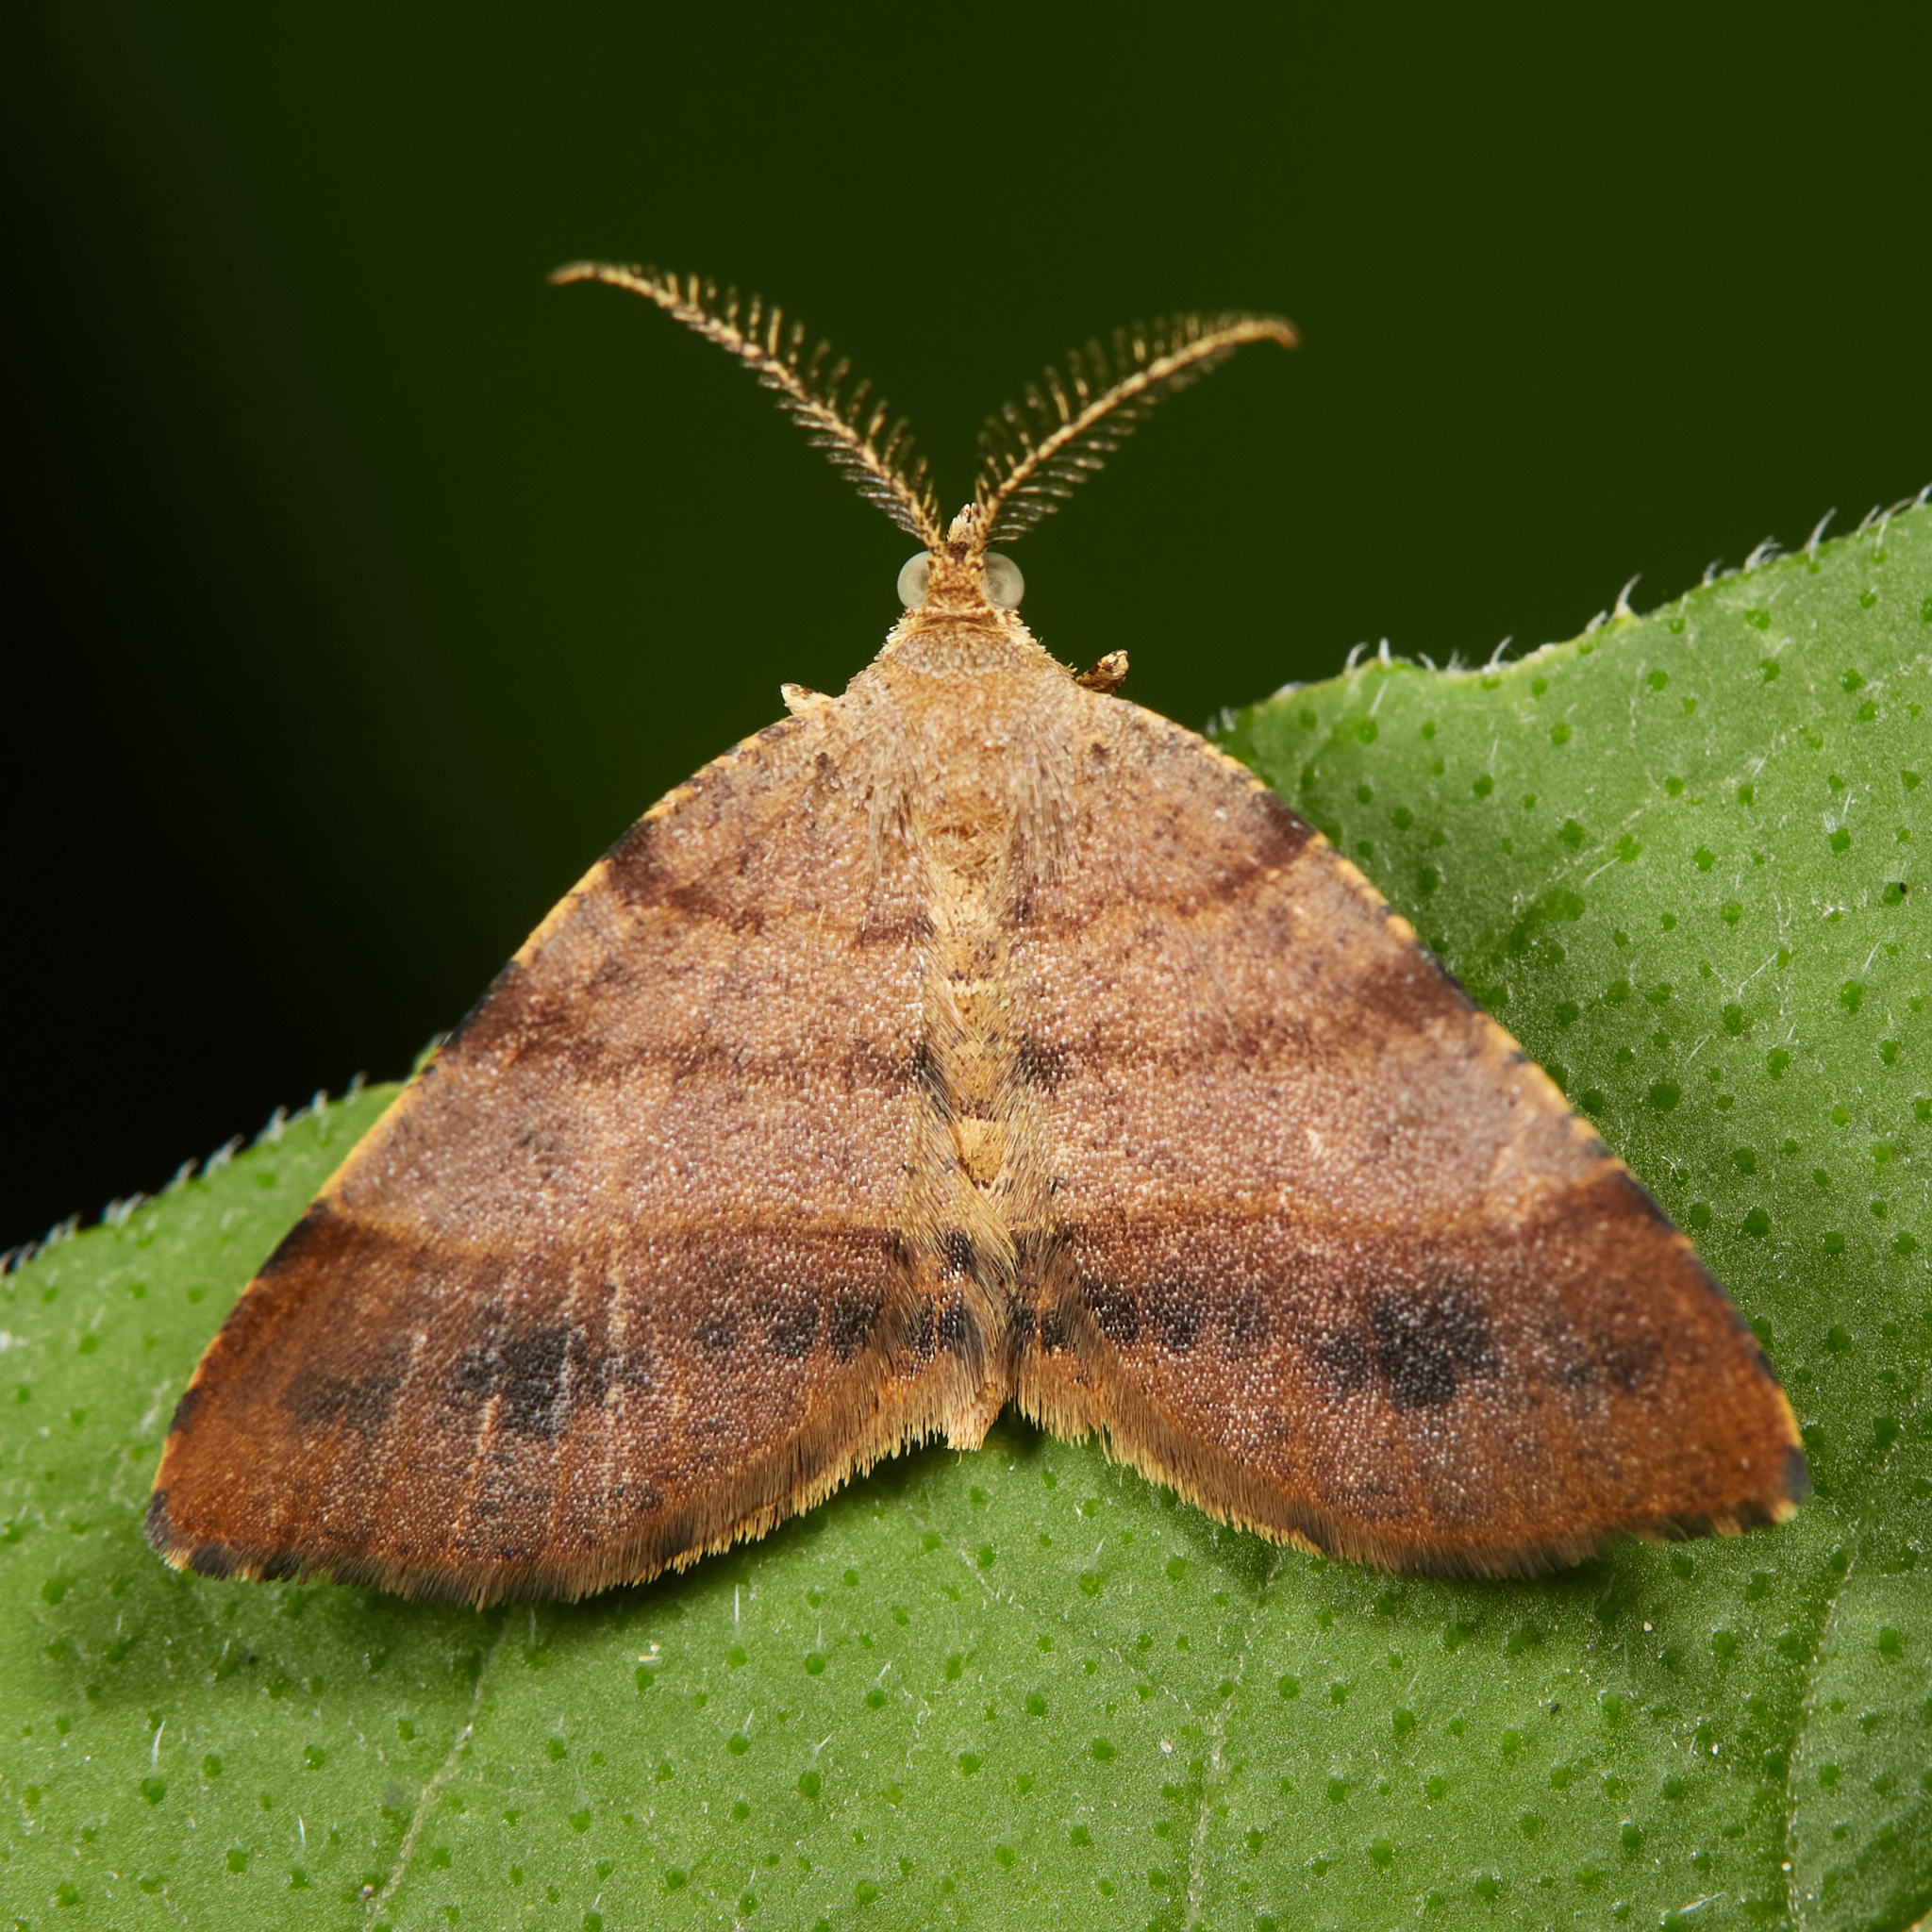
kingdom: Animalia
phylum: Arthropoda
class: Insecta
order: Lepidoptera
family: Geometridae
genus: Mellilla
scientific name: Mellilla xanthometata
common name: Orange wing moth
